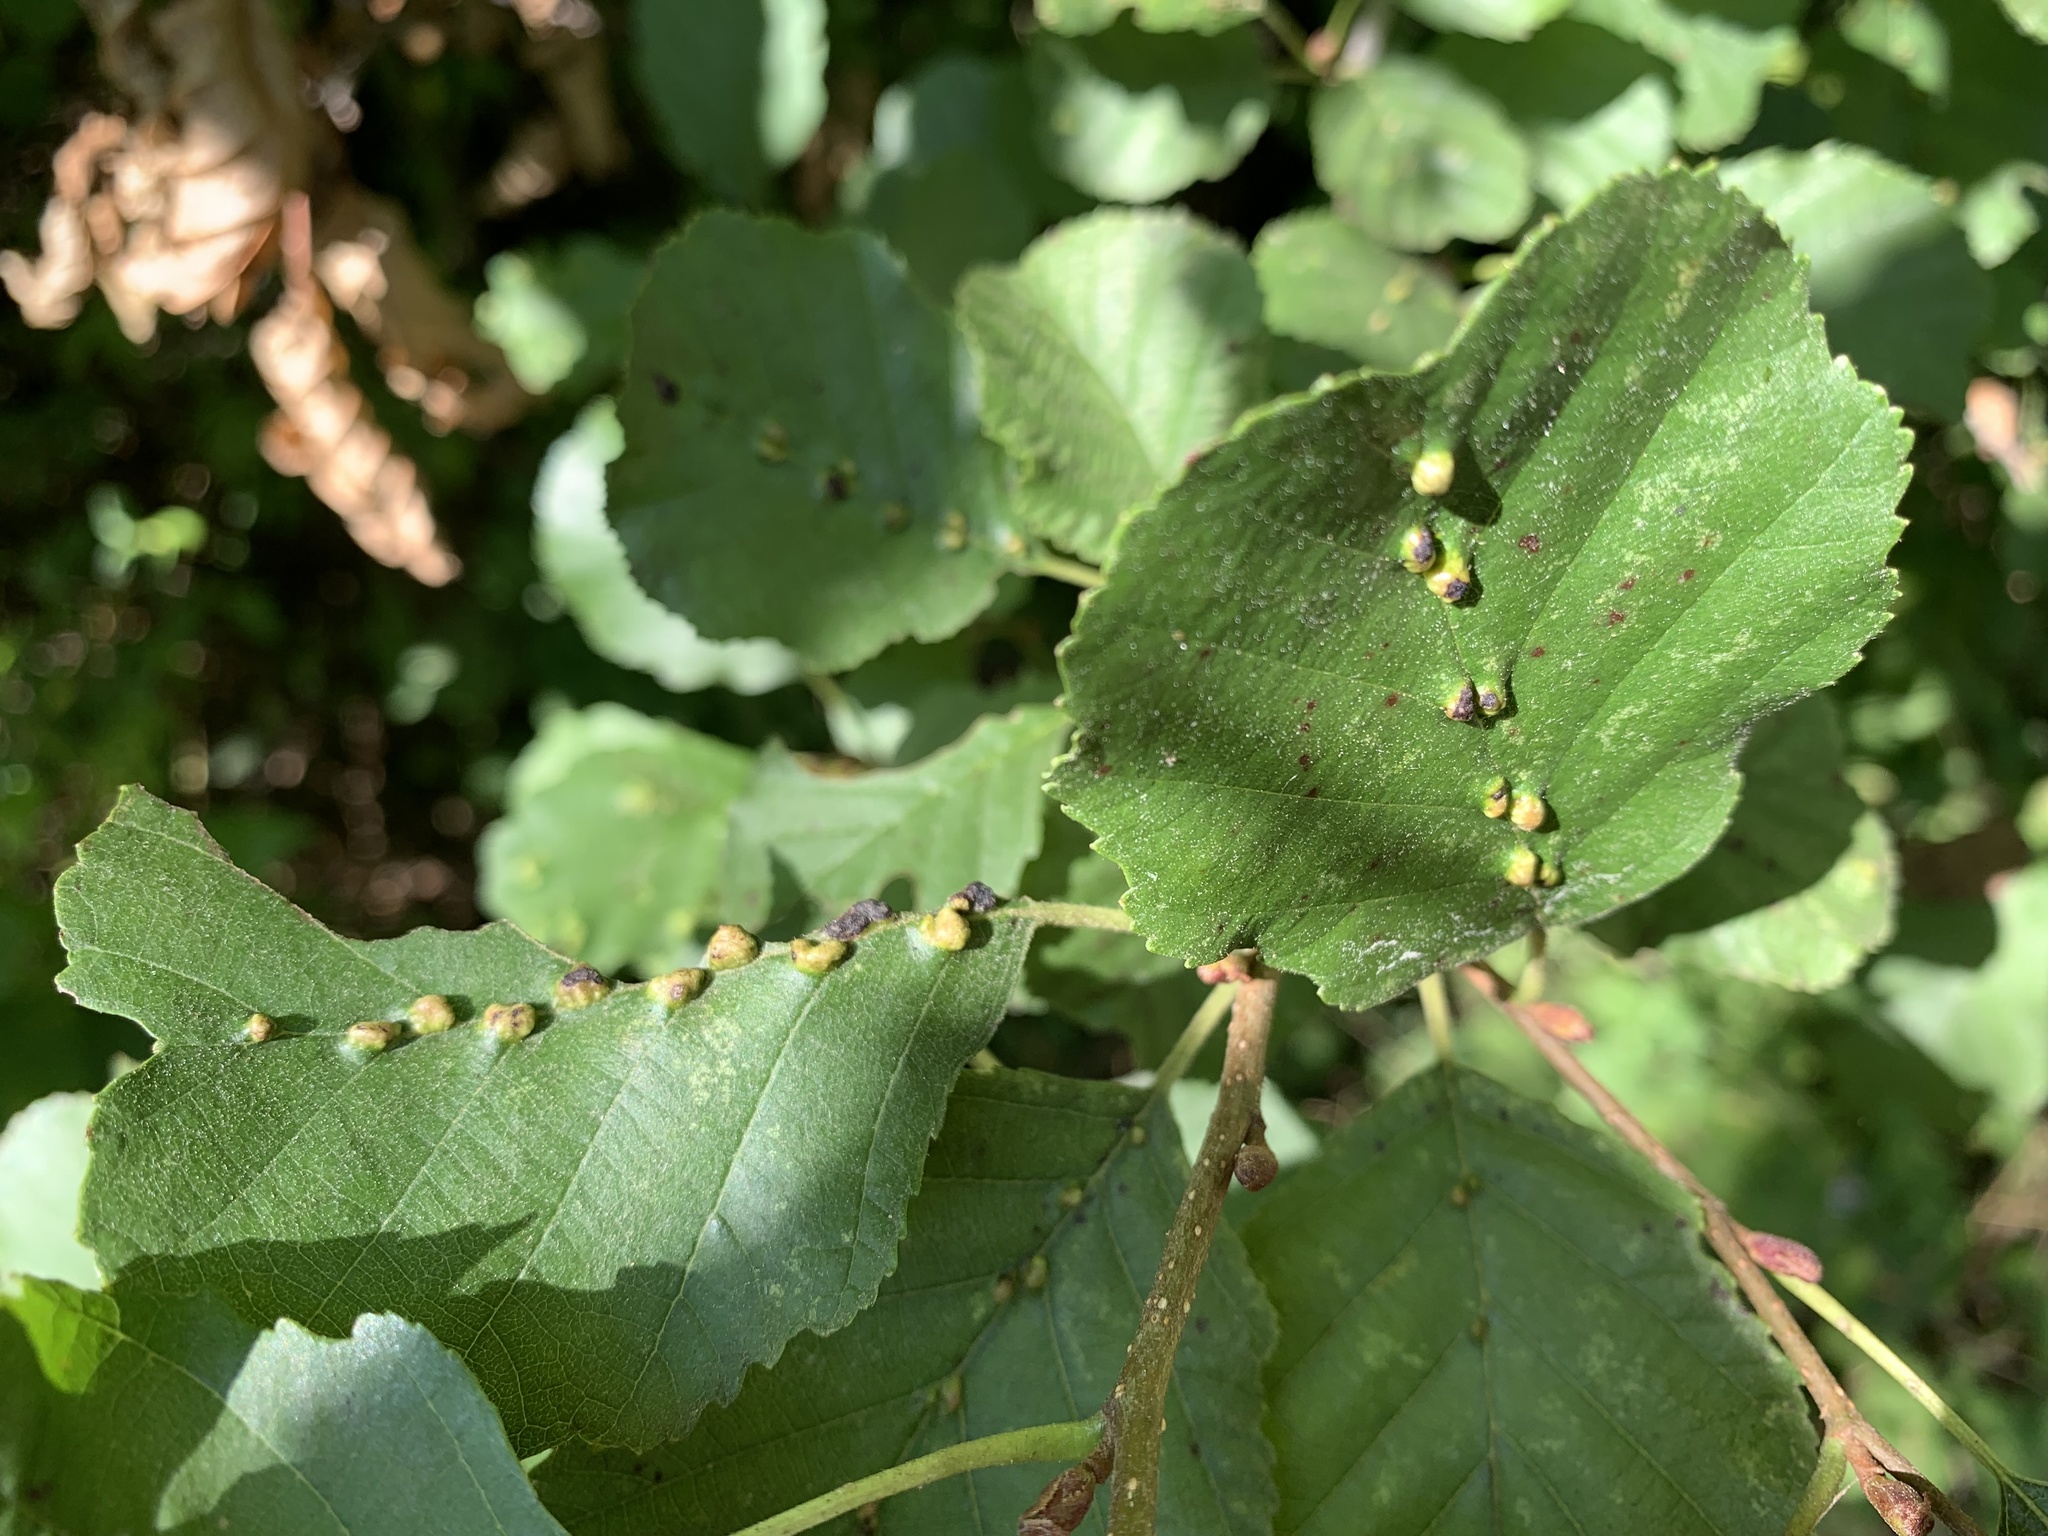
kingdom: Animalia
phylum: Arthropoda
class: Arachnida
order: Trombidiformes
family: Eriophyidae
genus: Eriophyes
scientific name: Eriophyes inangulis
